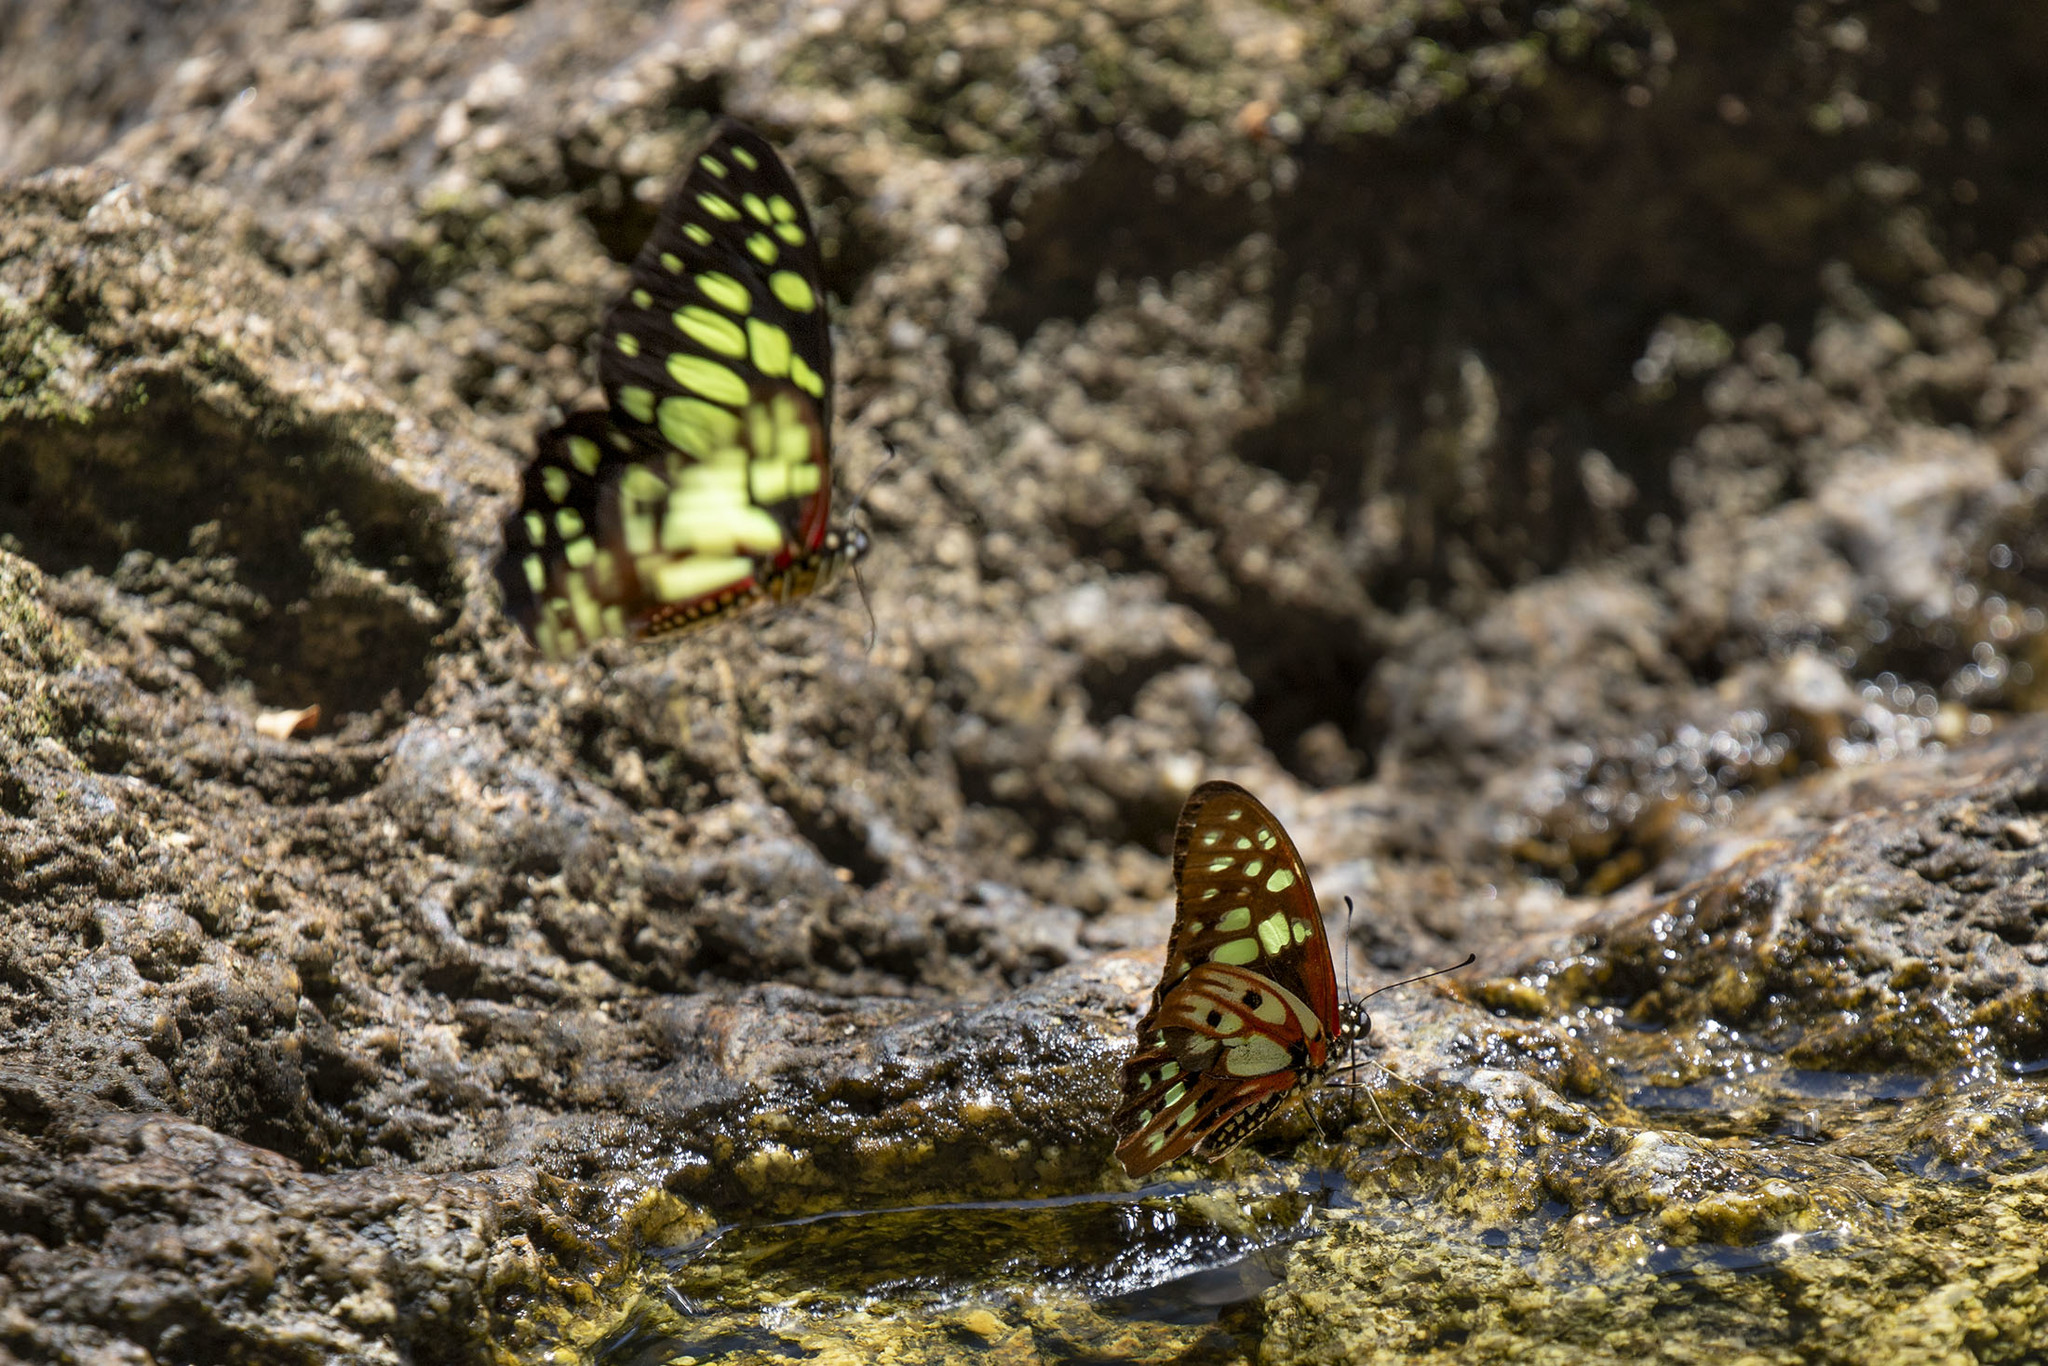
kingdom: Animalia
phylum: Arthropoda
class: Insecta
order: Lepidoptera
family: Papilionidae
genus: Graphium
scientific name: Graphium cyrnus
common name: Madagascan graphium
